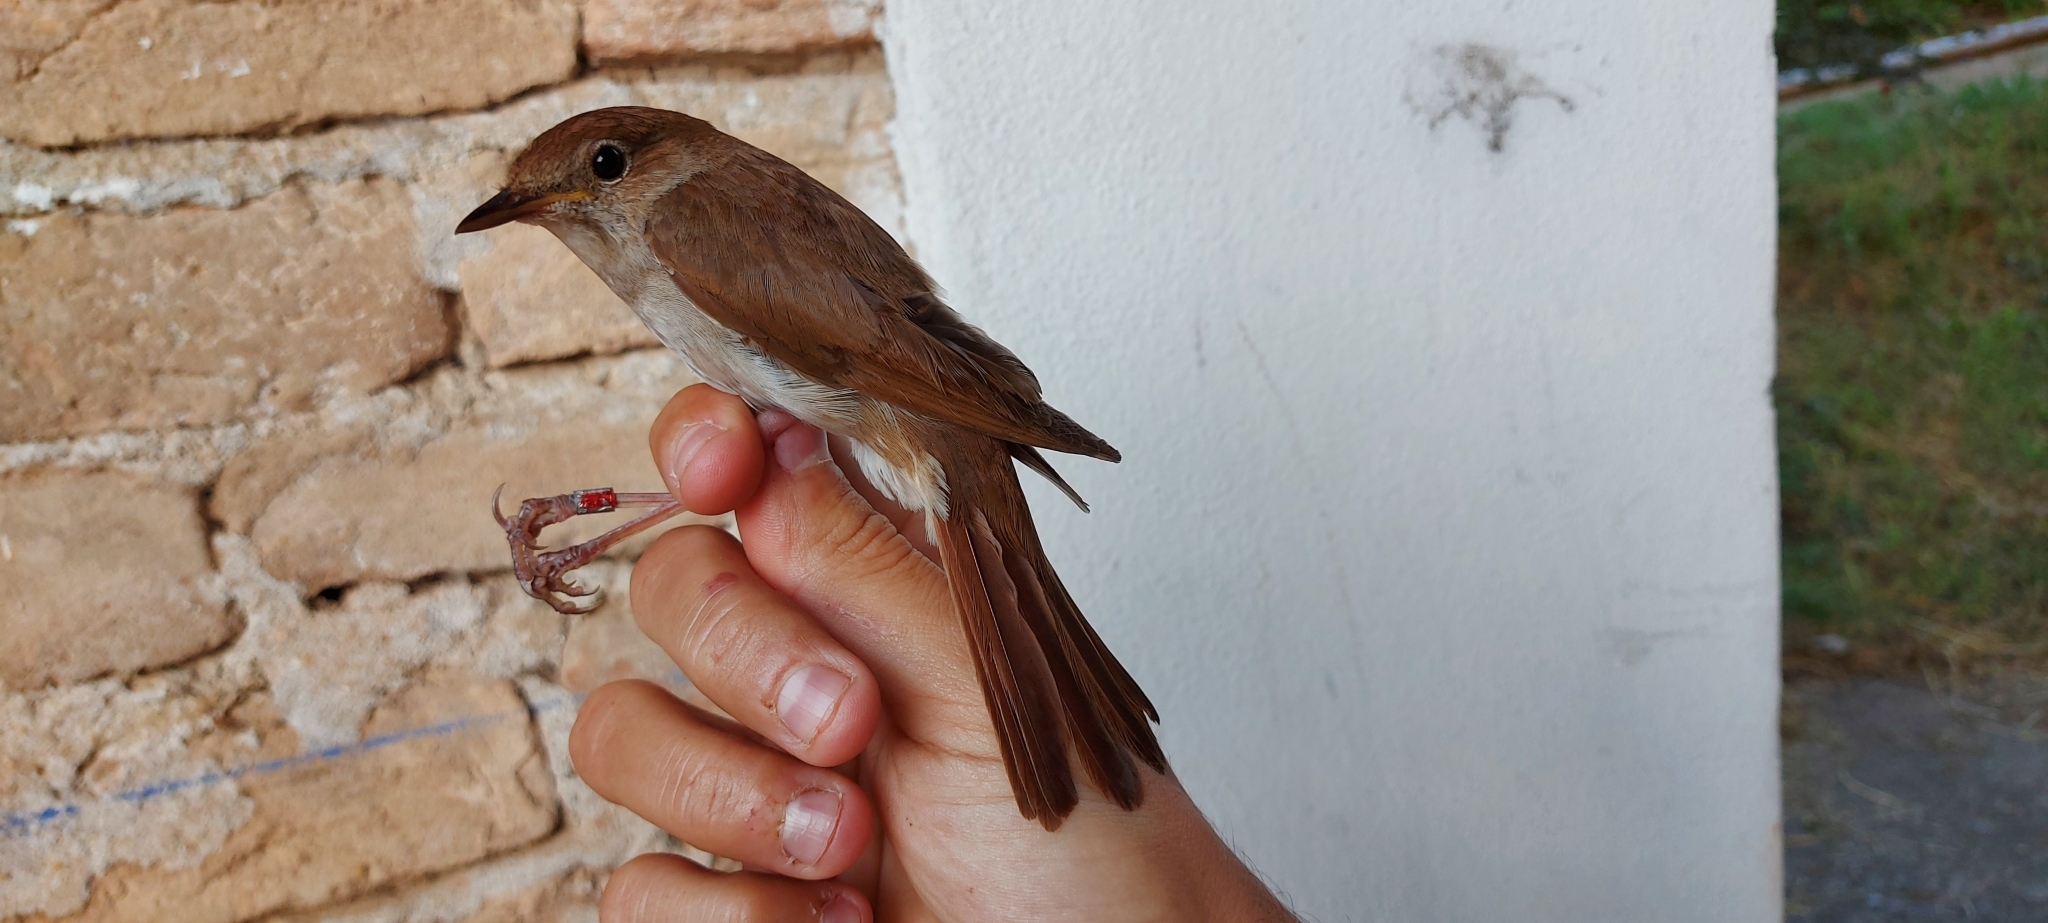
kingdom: Animalia
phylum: Chordata
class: Aves
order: Passeriformes
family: Muscicapidae
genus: Luscinia
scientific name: Luscinia megarhynchos
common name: Common nightingale
